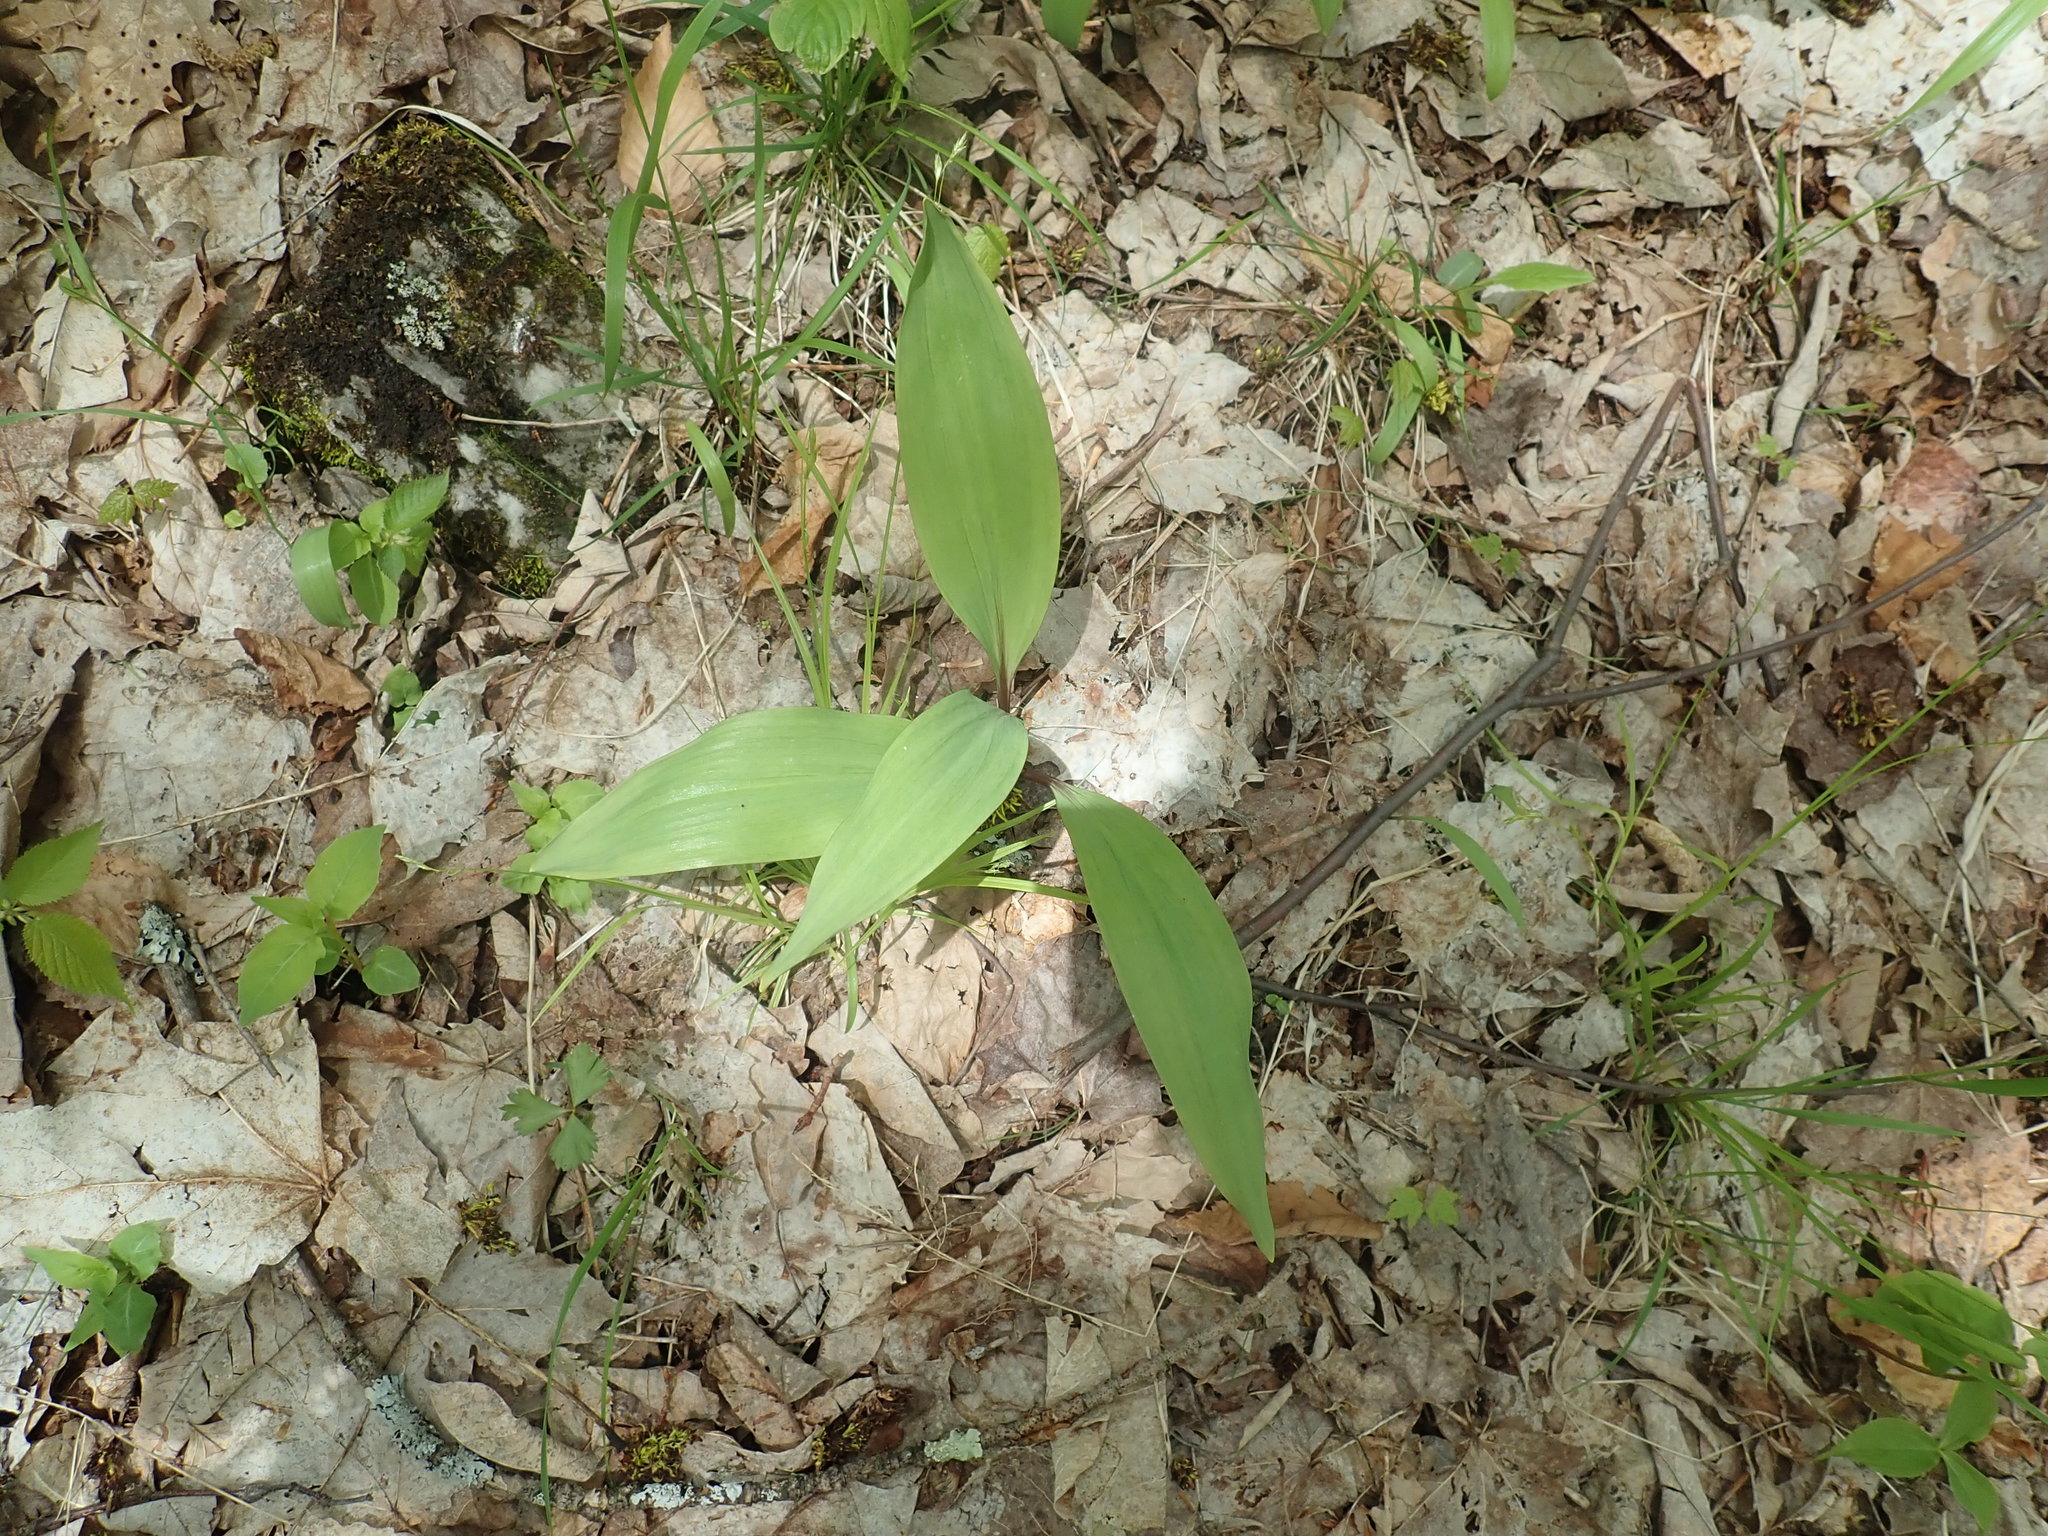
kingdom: Plantae
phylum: Tracheophyta
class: Liliopsida
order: Asparagales
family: Amaryllidaceae
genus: Allium
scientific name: Allium tricoccum
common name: Ramp
